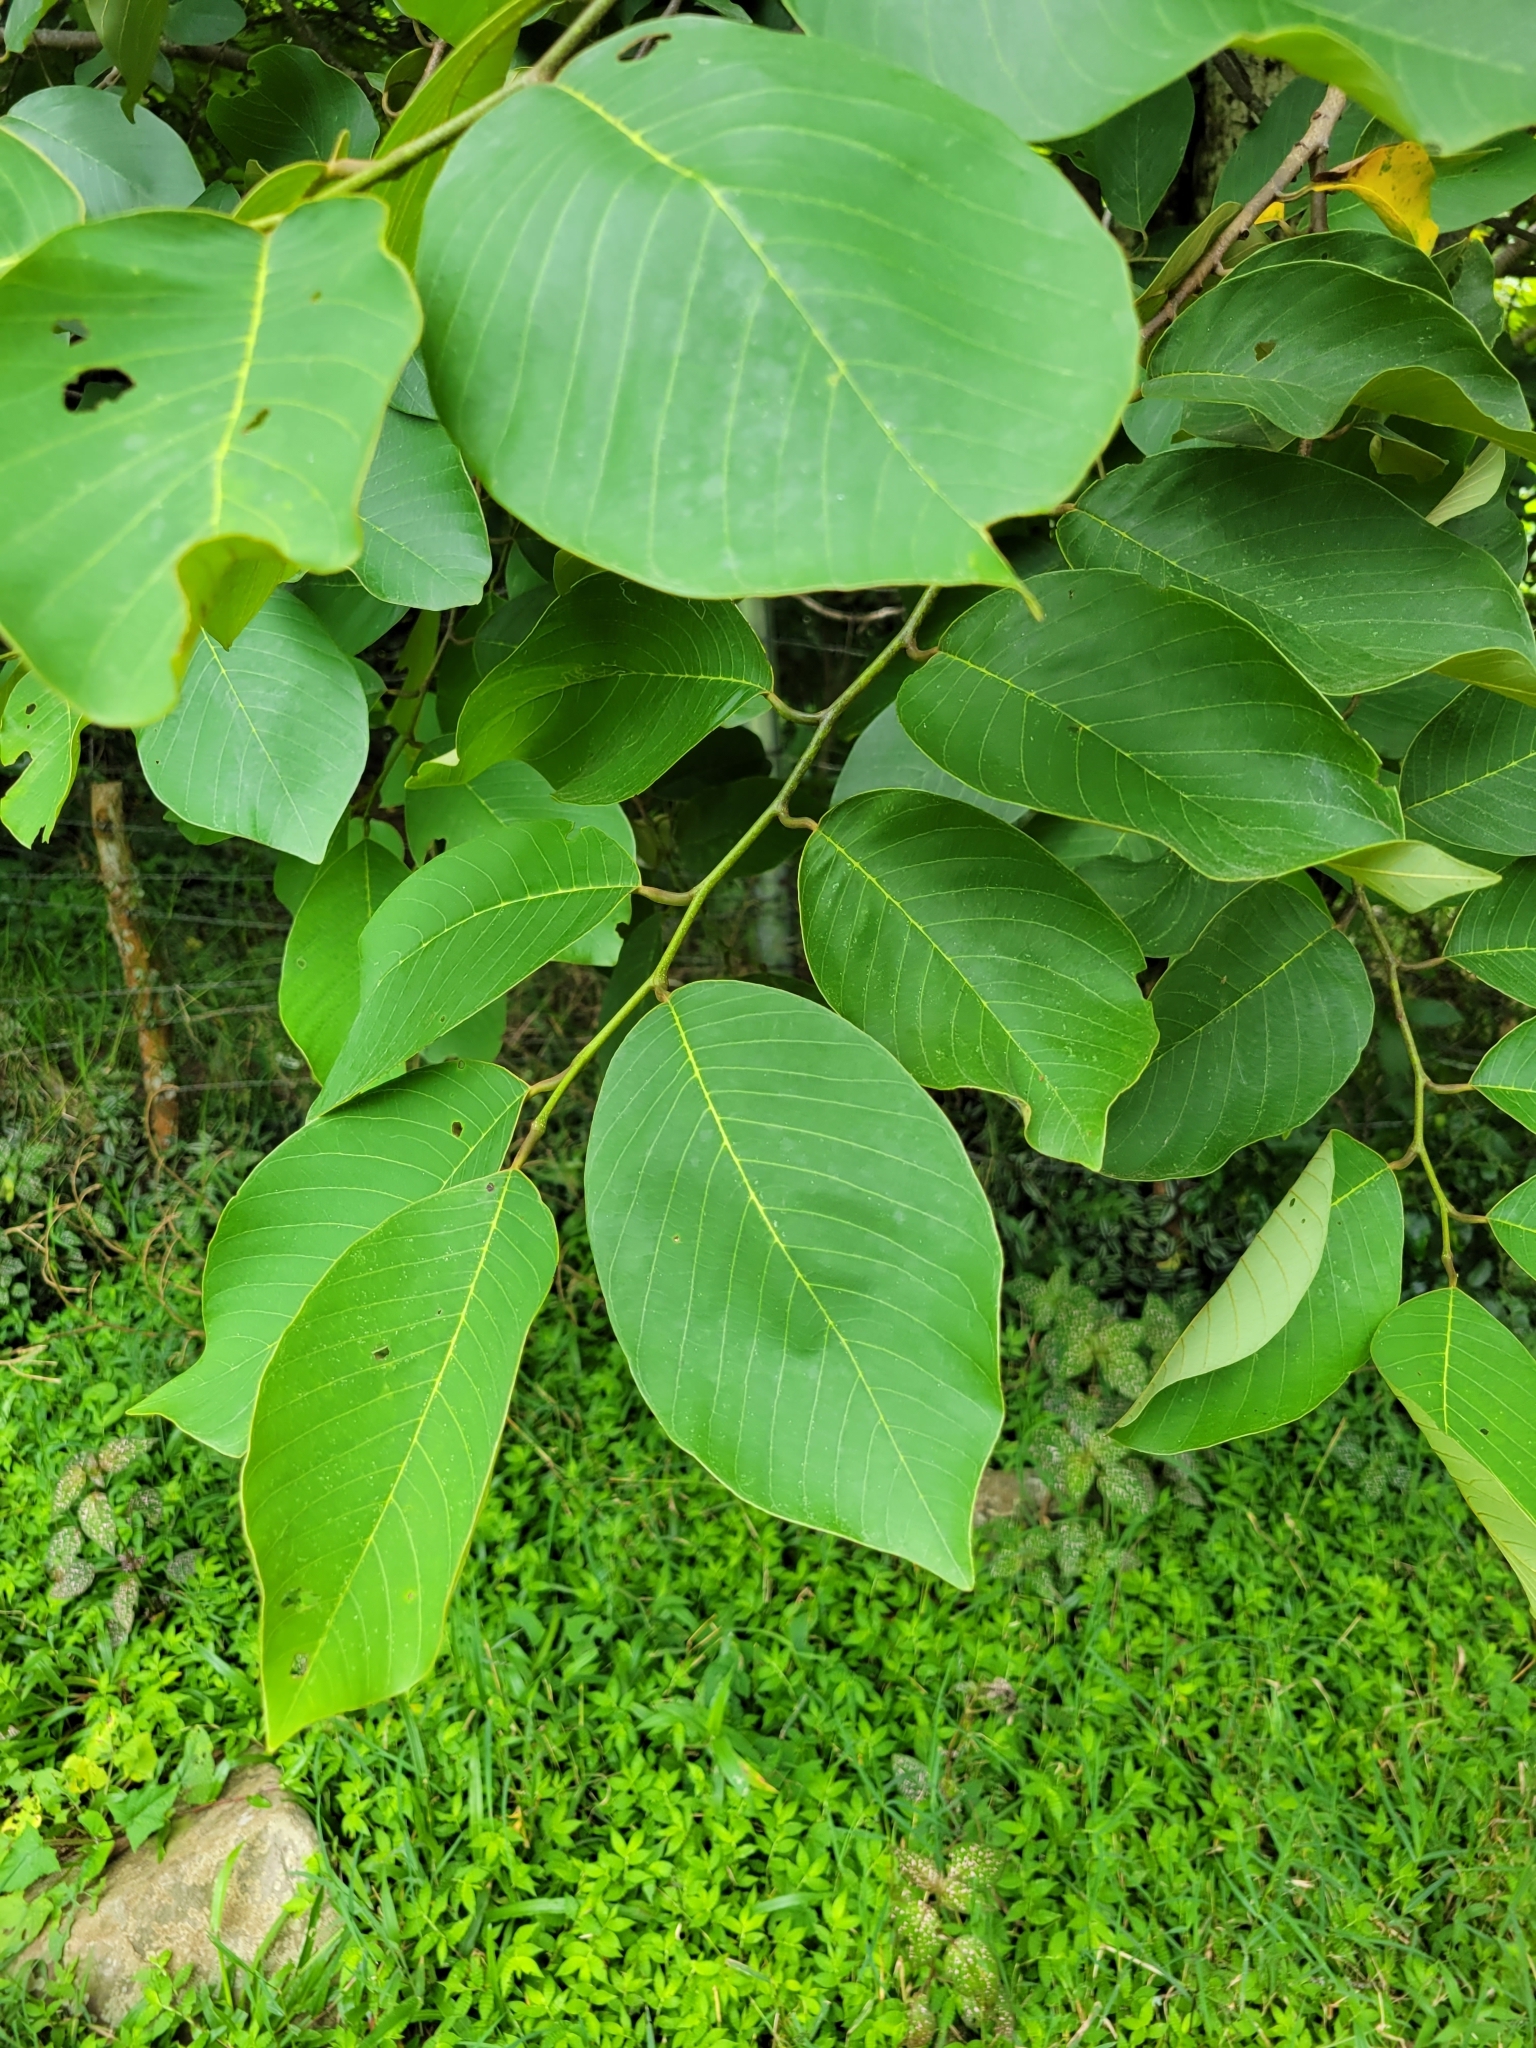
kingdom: Plantae
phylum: Tracheophyta
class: Magnoliopsida
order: Magnoliales
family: Annonaceae
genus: Annona
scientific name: Annona cherimola
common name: Cherimoya
